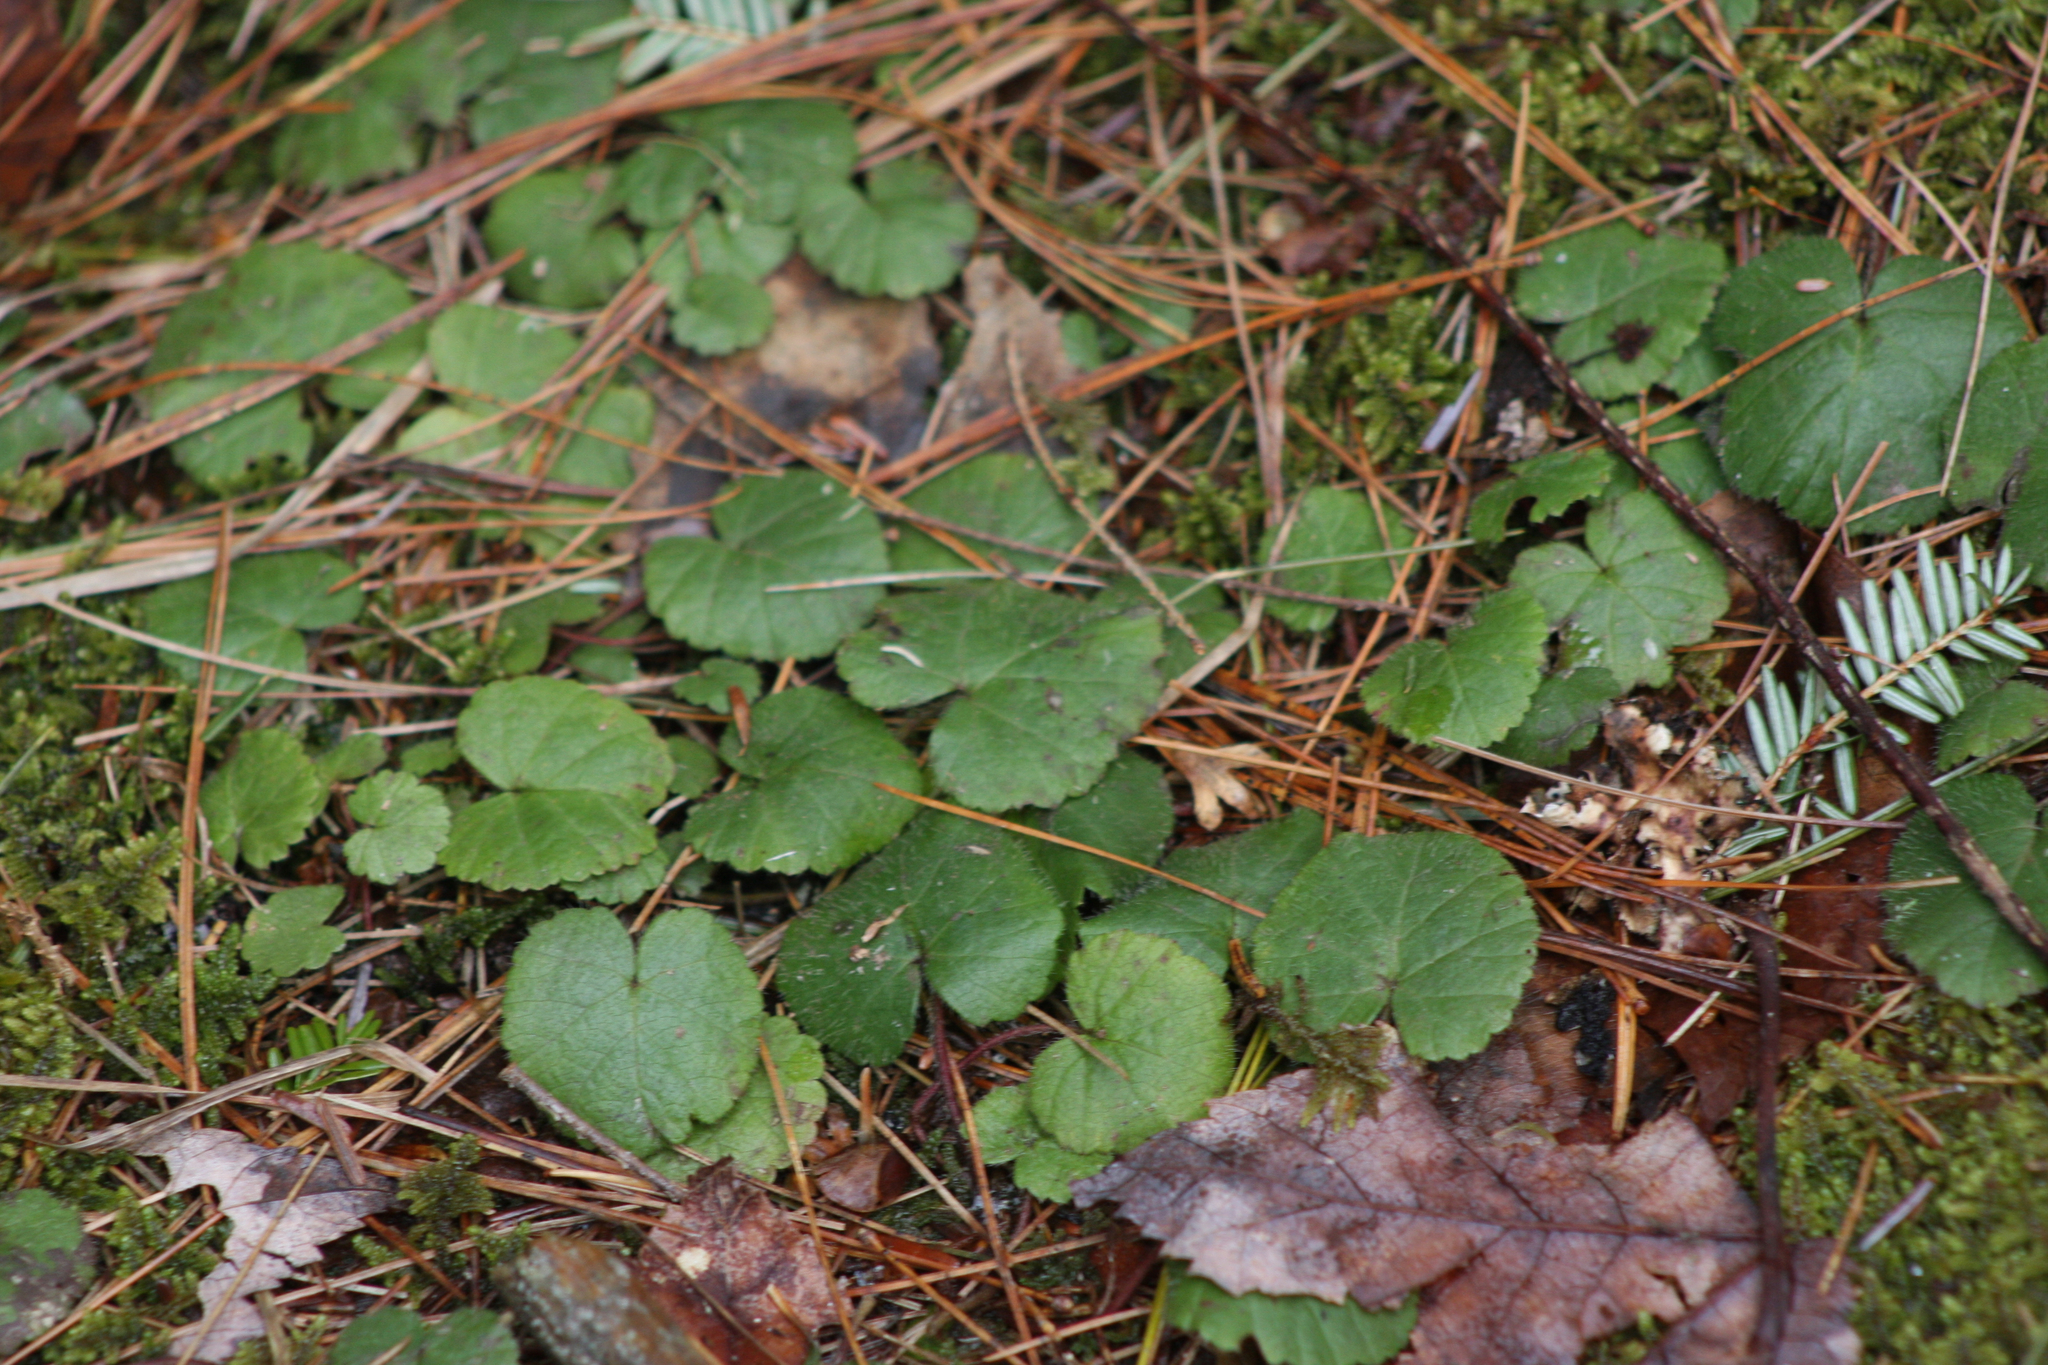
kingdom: Plantae
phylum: Tracheophyta
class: Magnoliopsida
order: Rosales
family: Rosaceae
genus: Dalibarda
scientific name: Dalibarda repens
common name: Dewdrop
